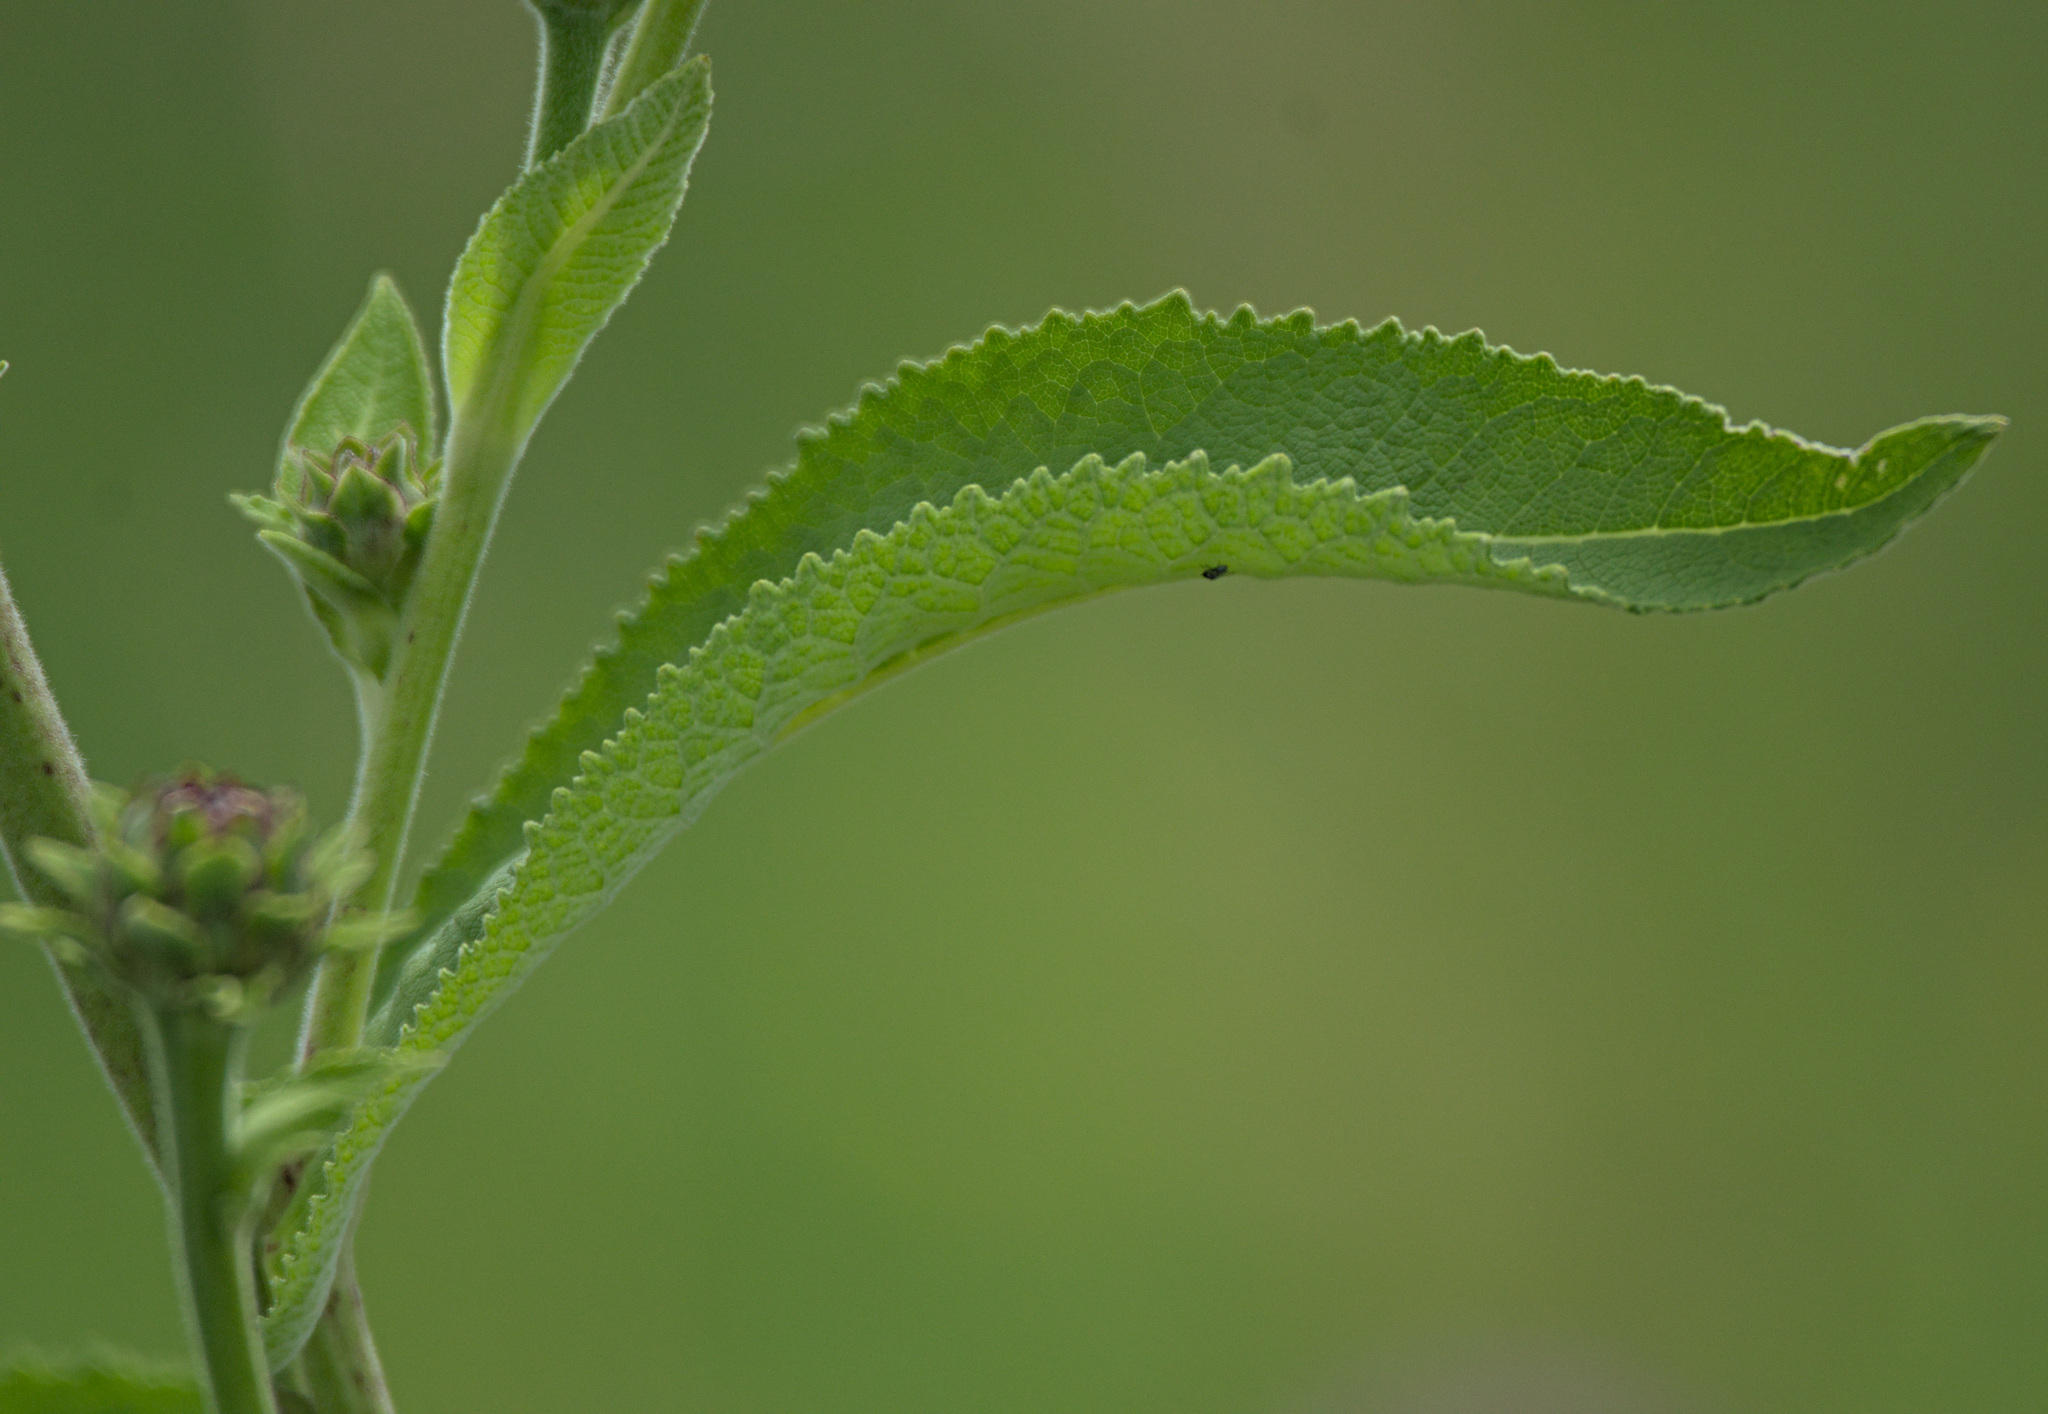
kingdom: Plantae
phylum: Tracheophyta
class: Magnoliopsida
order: Asterales
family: Asteraceae
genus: Inula
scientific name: Inula helenium
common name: Elecampane
